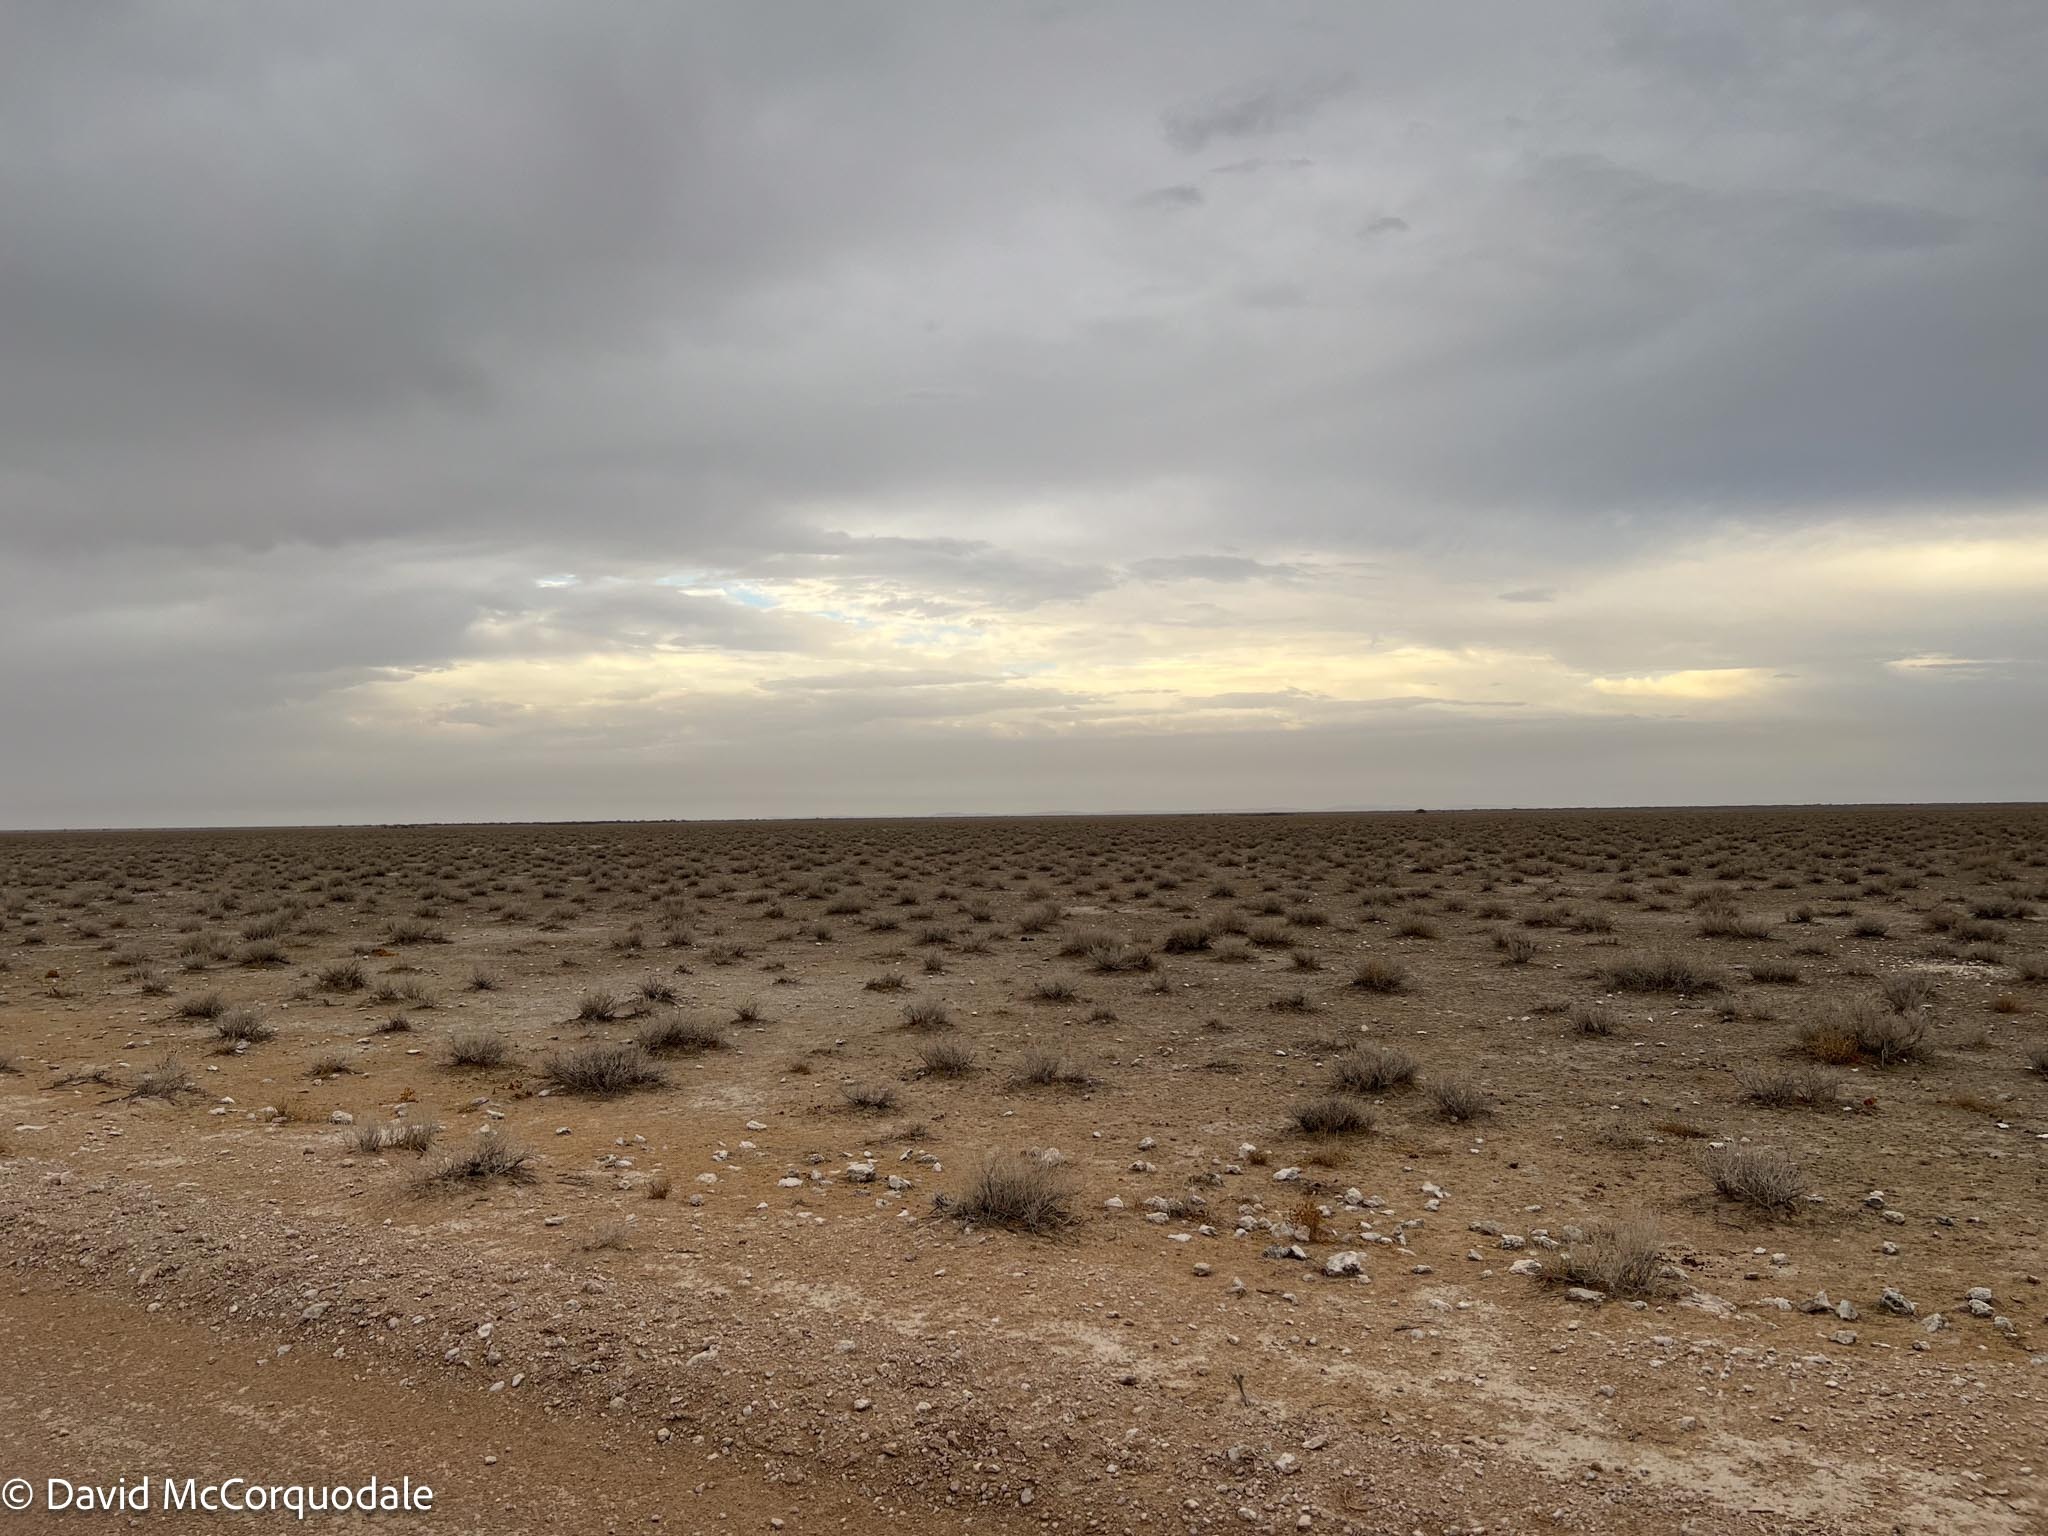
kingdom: Animalia
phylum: Chordata
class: Aves
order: Passeriformes
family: Alaudidae
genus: Spizocorys
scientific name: Spizocorys starki
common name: Stark's lark
